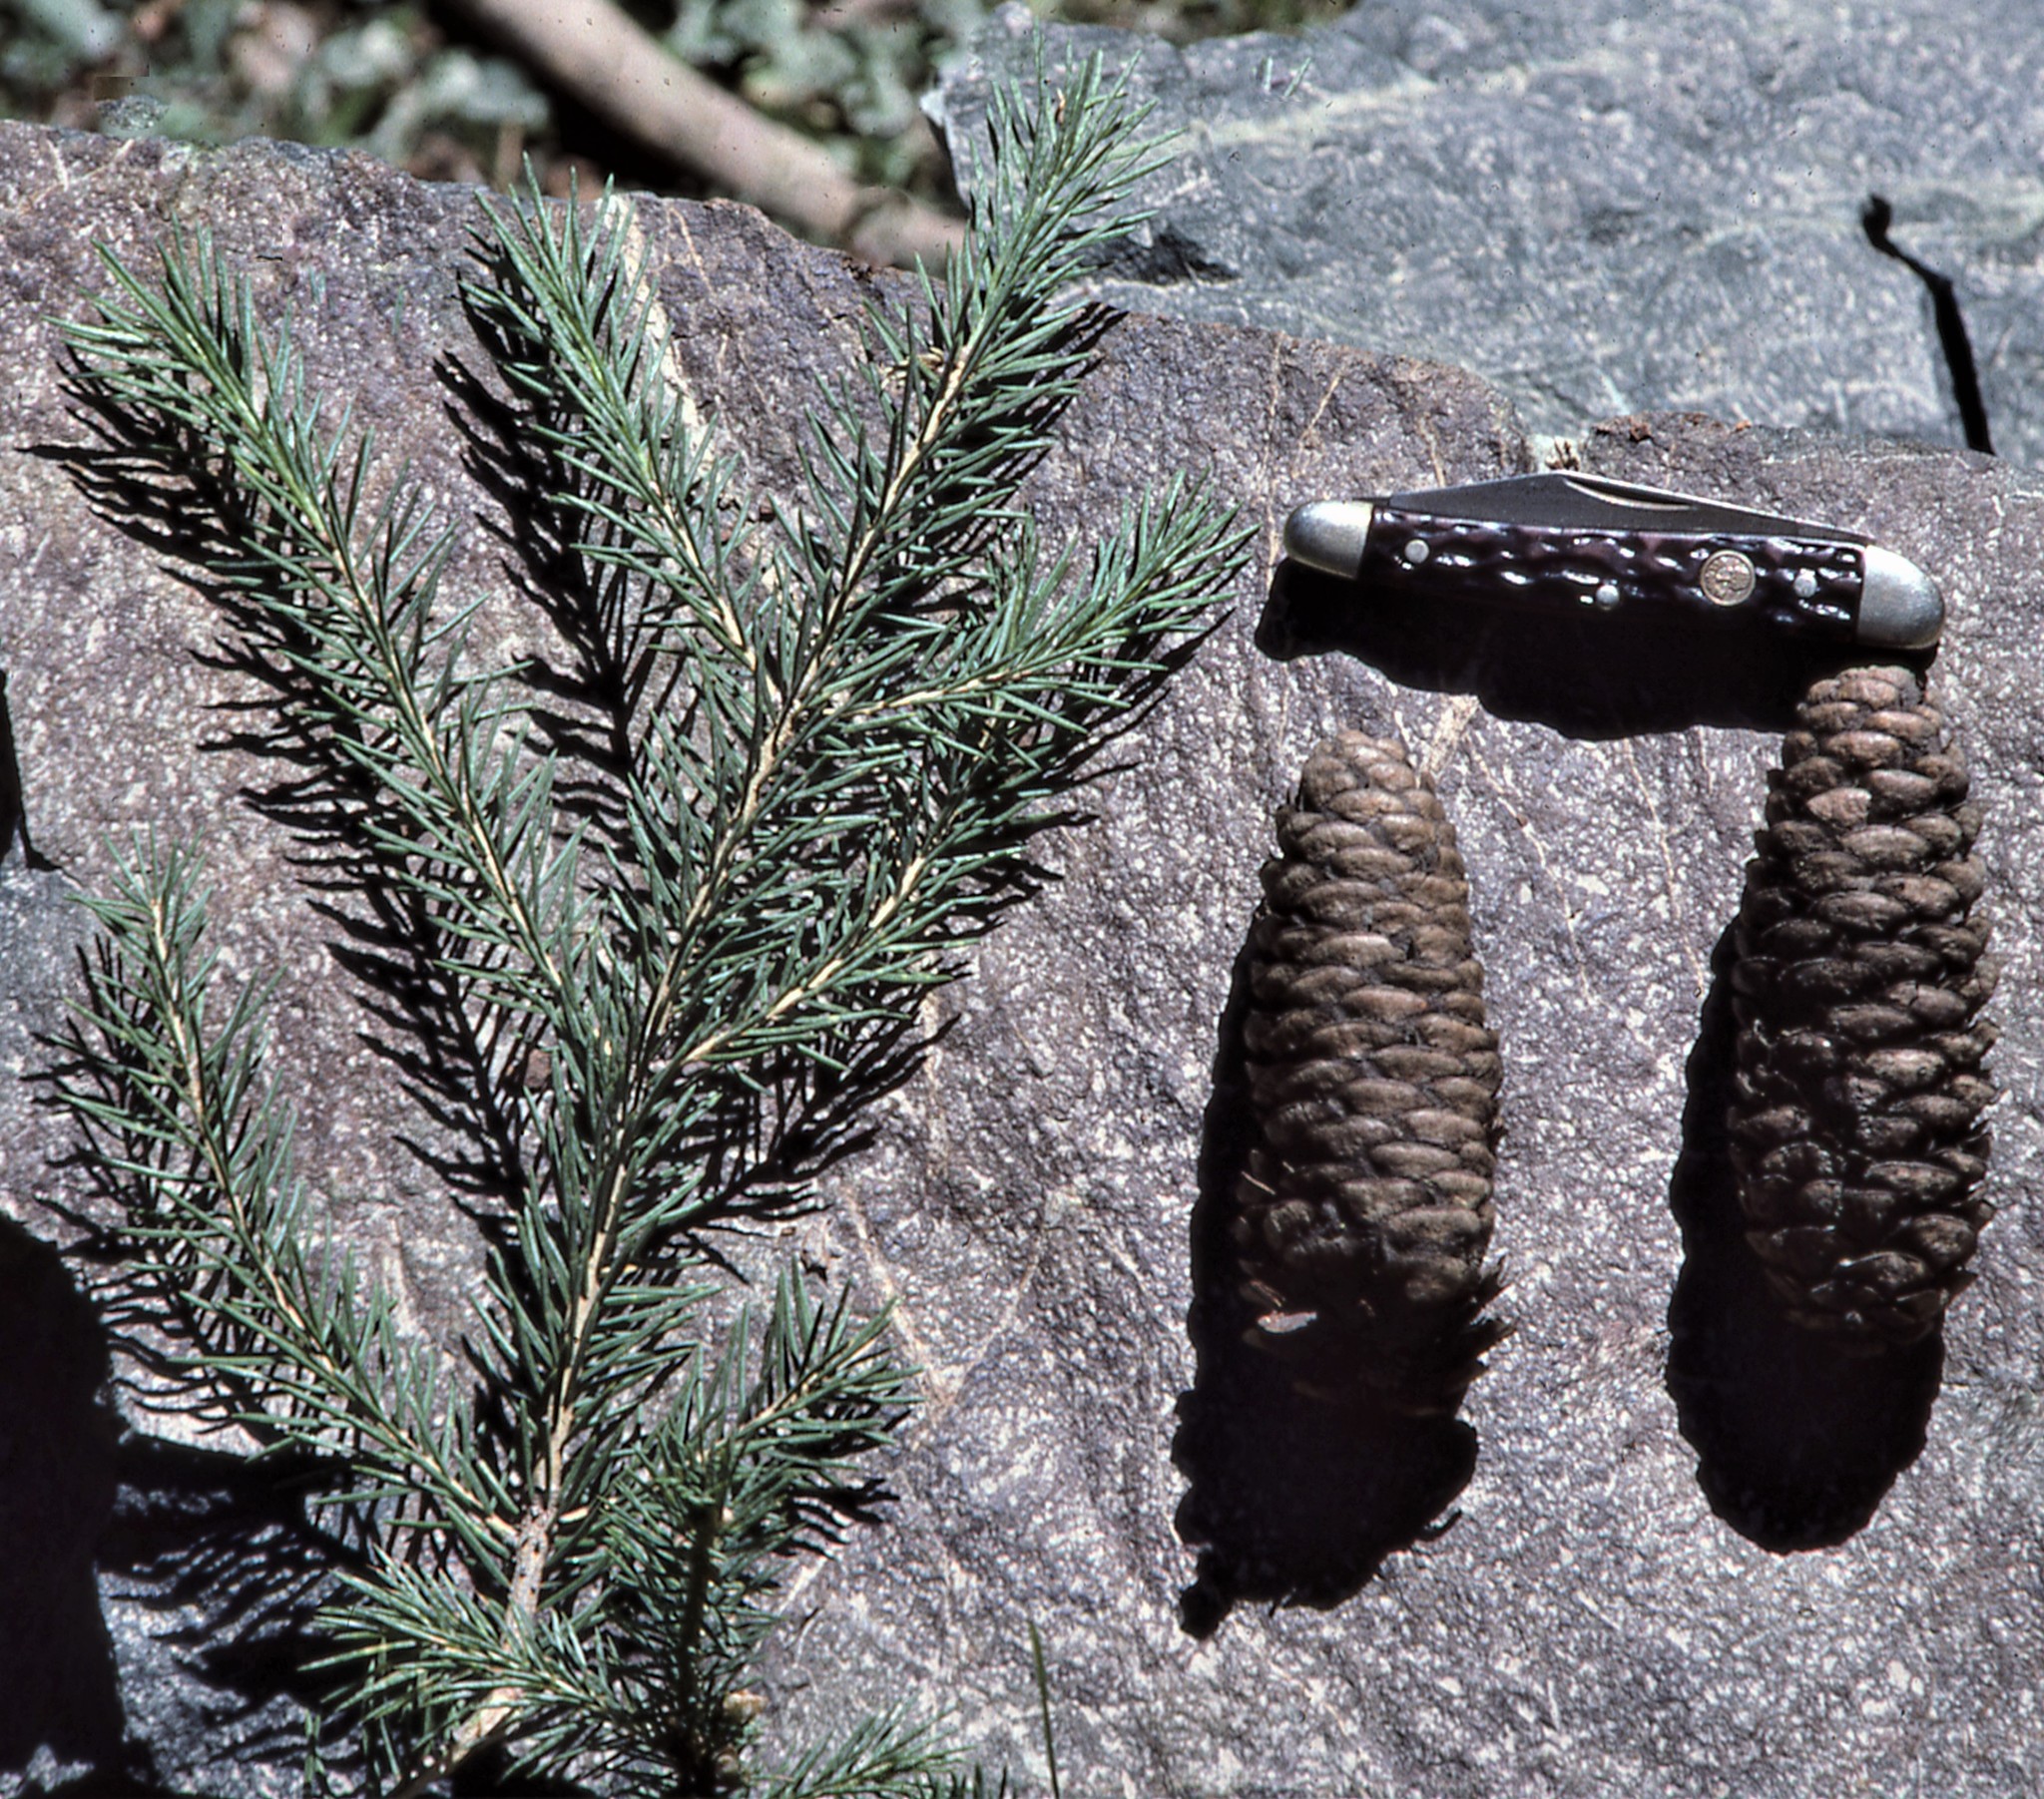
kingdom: Plantae
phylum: Tracheophyta
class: Pinopsida
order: Pinales
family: Pinaceae
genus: Picea
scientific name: Picea schrenkiana
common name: Asian spruce
